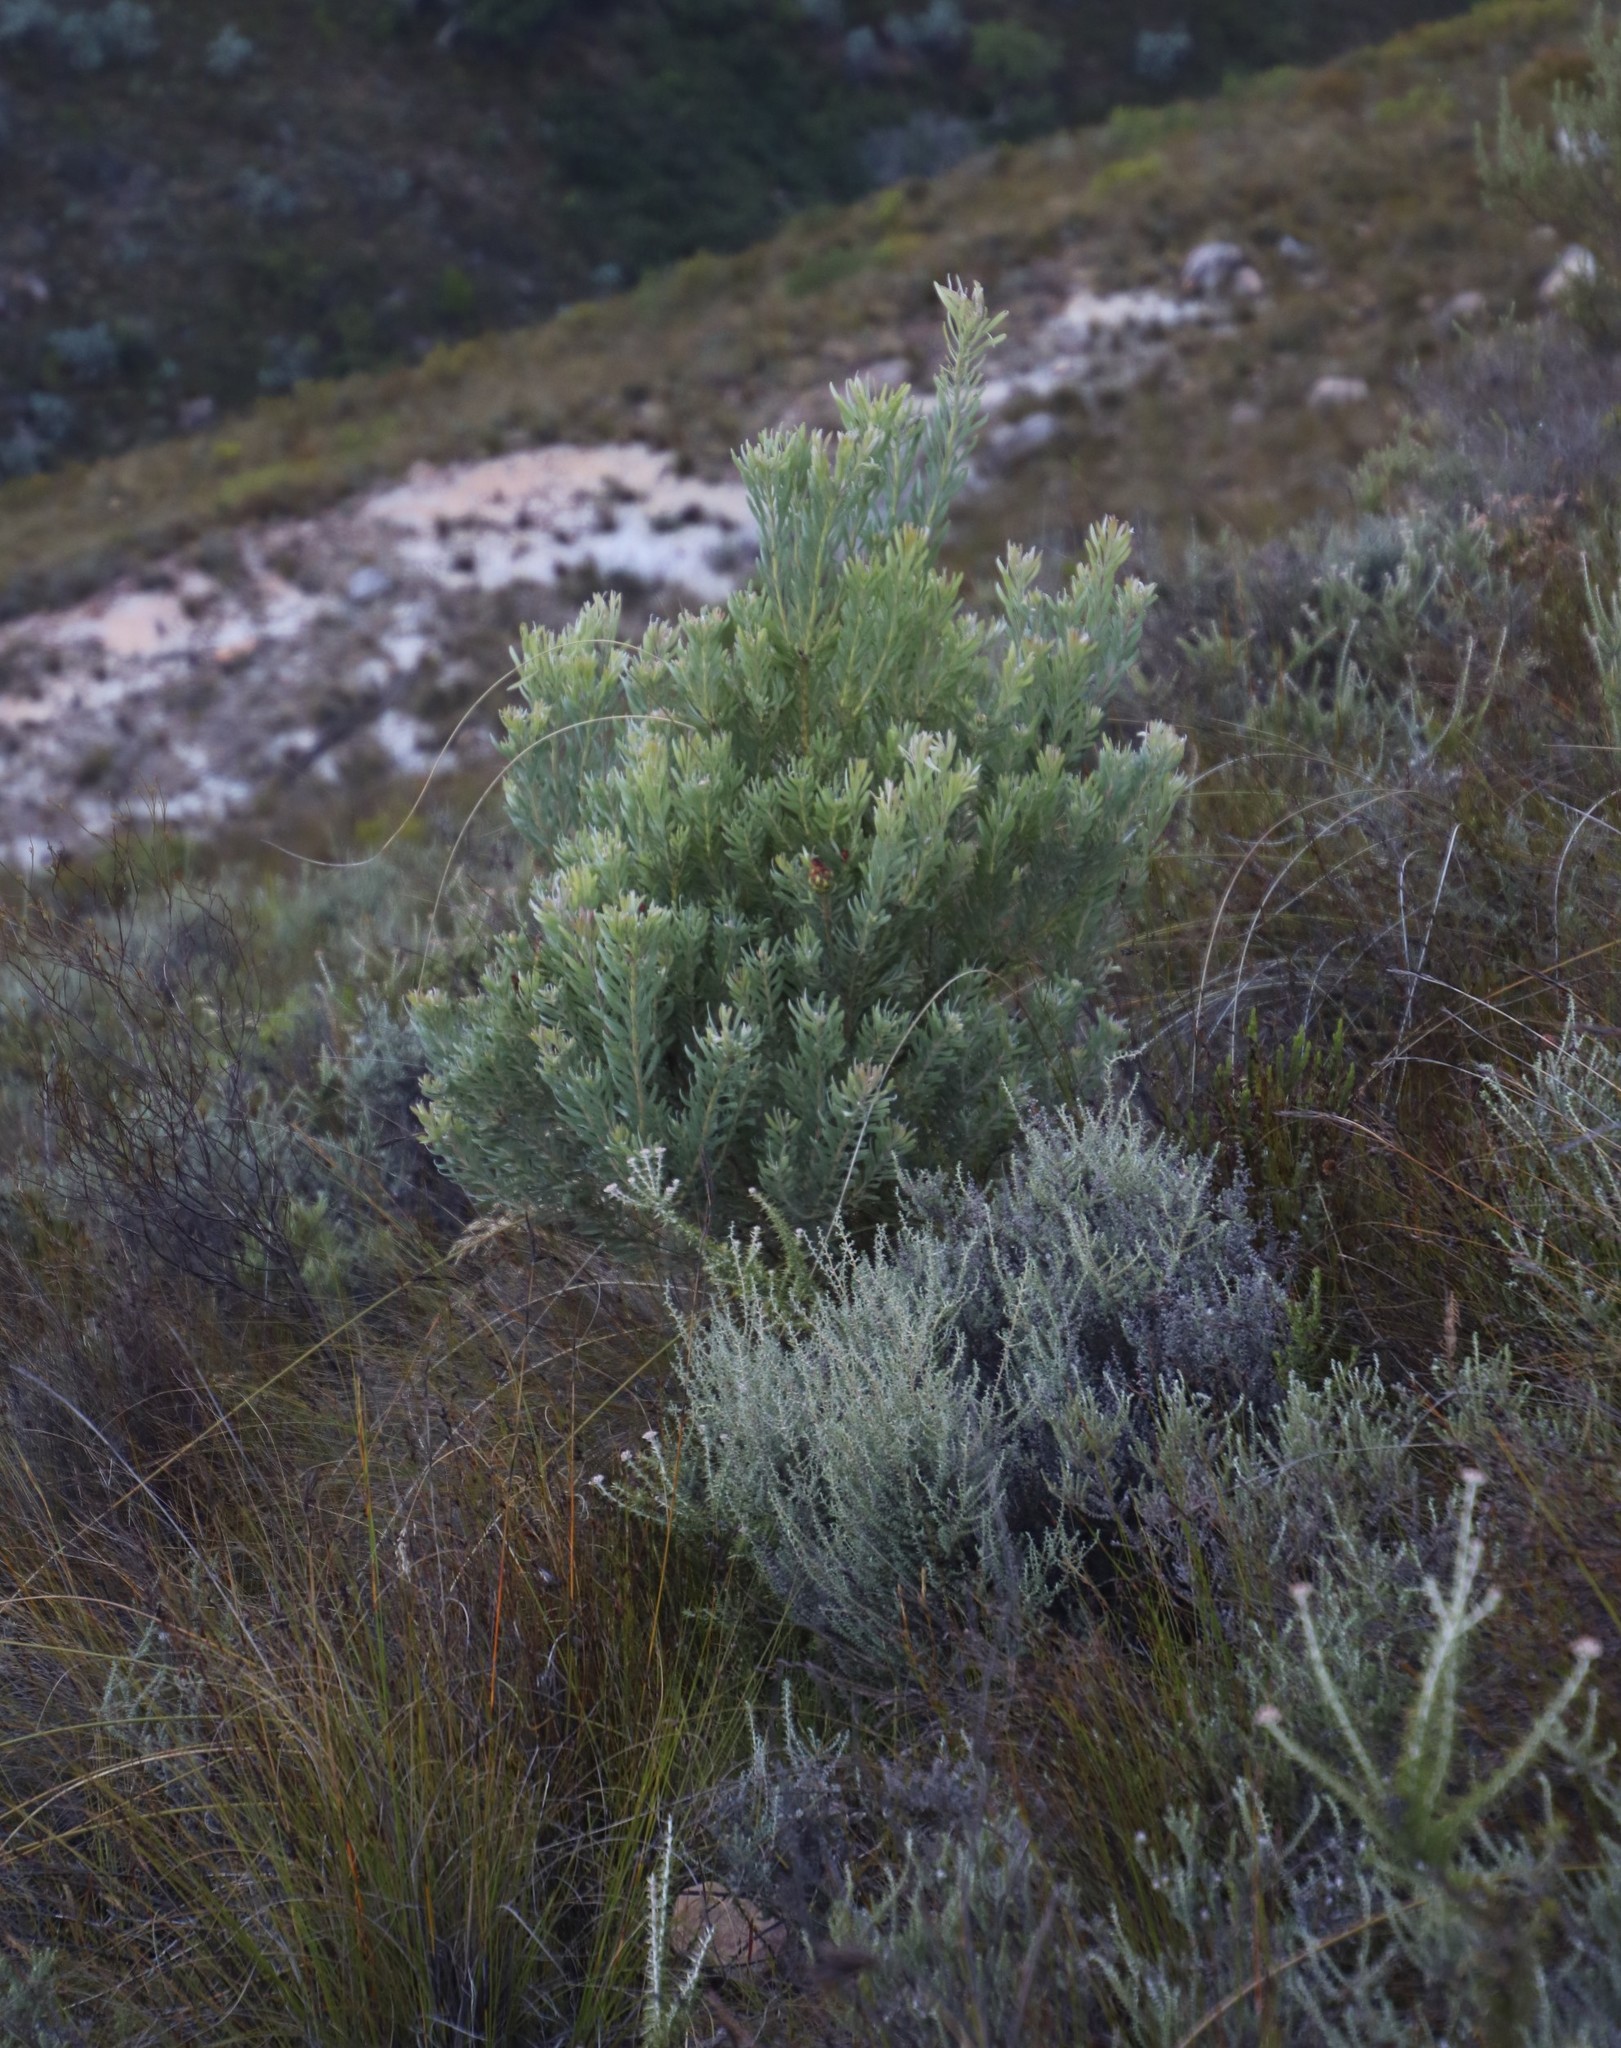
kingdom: Plantae
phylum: Tracheophyta
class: Magnoliopsida
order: Proteales
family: Proteaceae
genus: Leucadendron
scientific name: Leucadendron rubrum
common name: Spinning top
